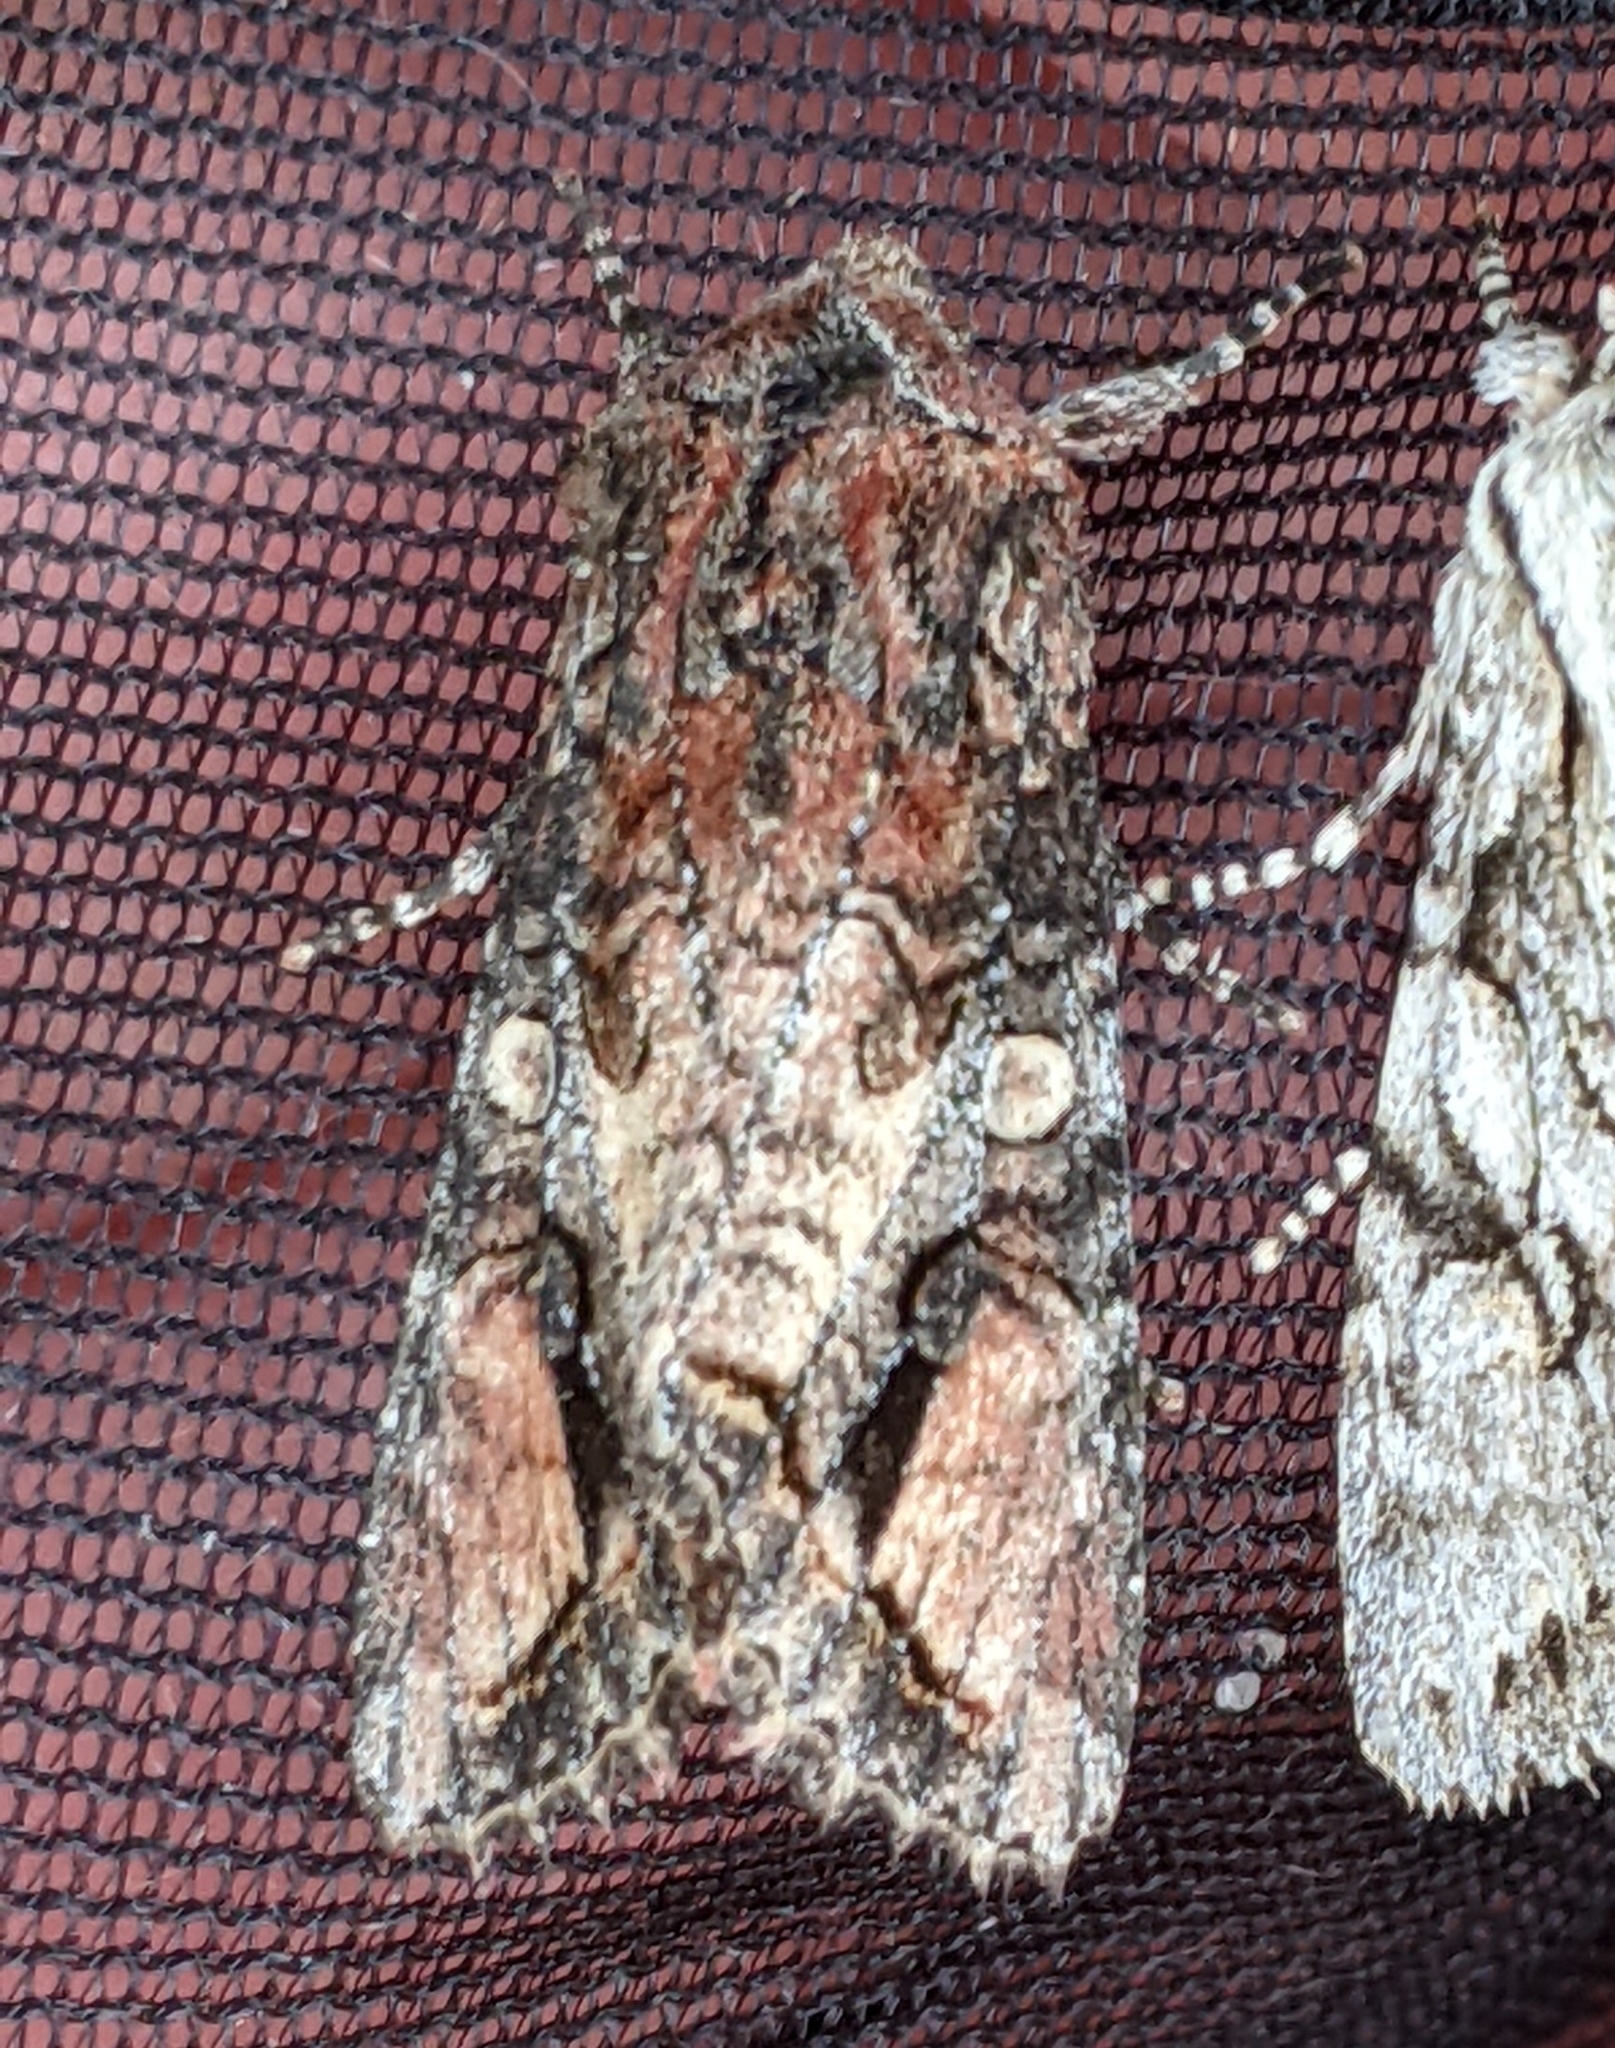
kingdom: Animalia
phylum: Arthropoda
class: Insecta
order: Lepidoptera
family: Noctuidae
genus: Egira
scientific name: Egira perlubens
